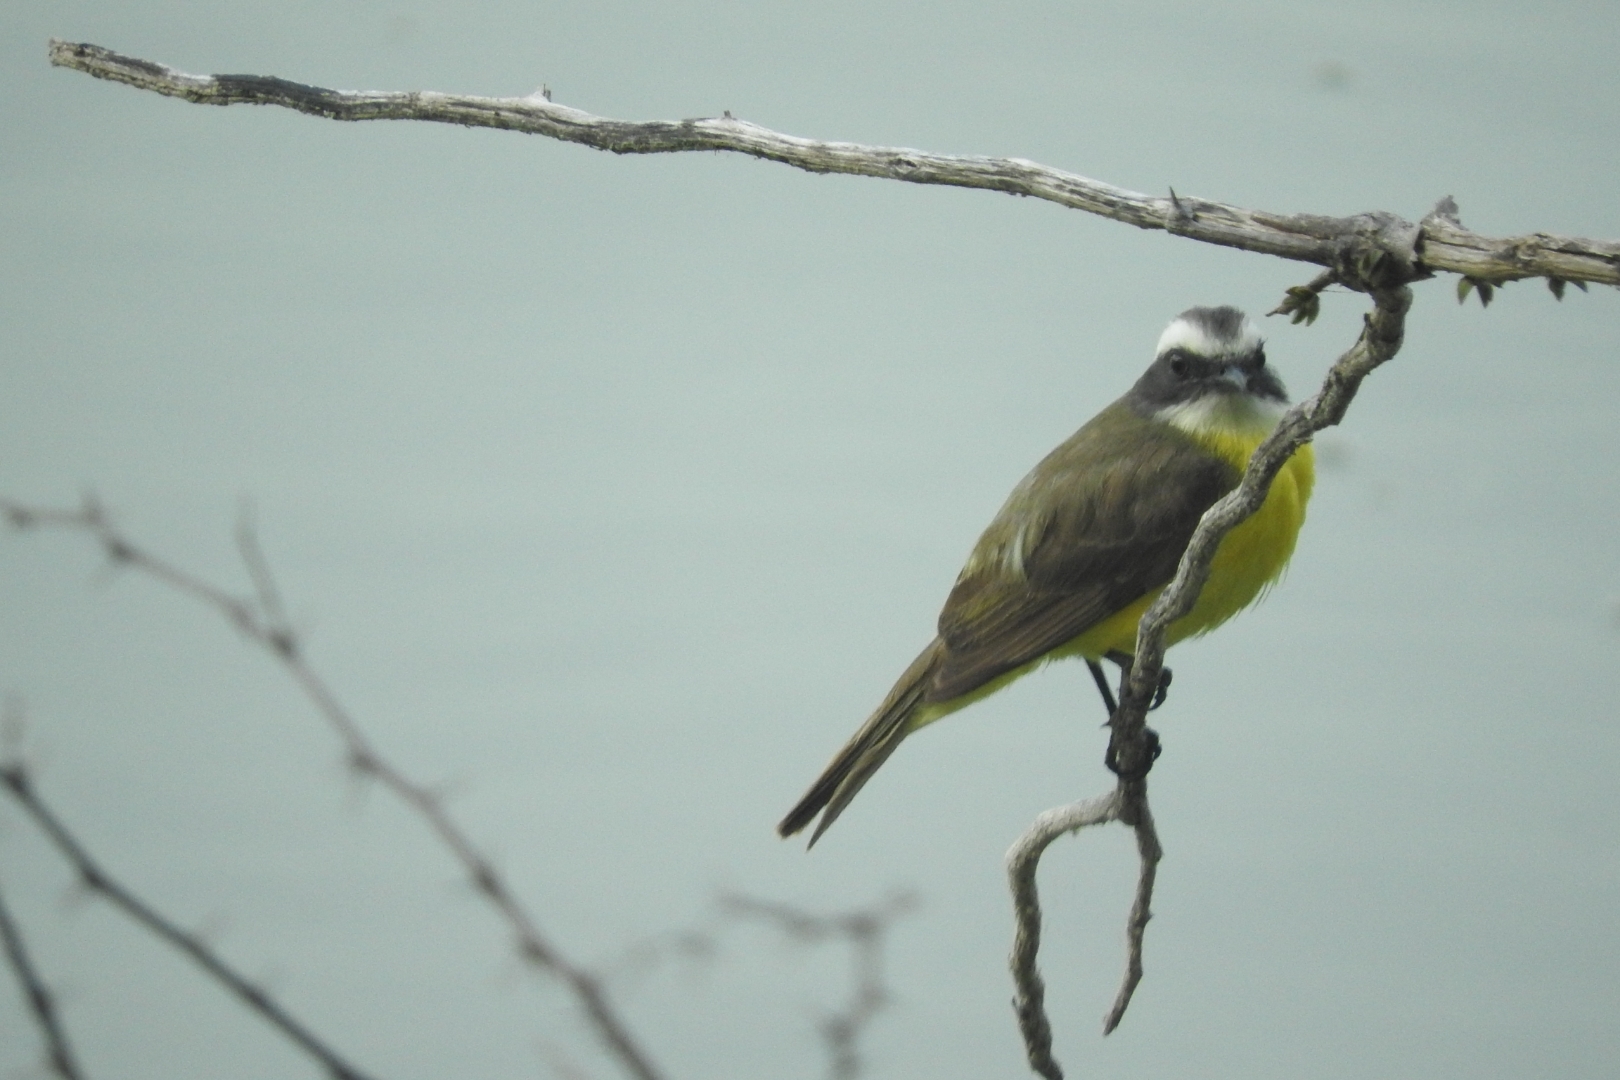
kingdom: Animalia
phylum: Chordata
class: Aves
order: Passeriformes
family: Tyrannidae
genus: Myiozetetes
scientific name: Myiozetetes similis
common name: Social flycatcher
